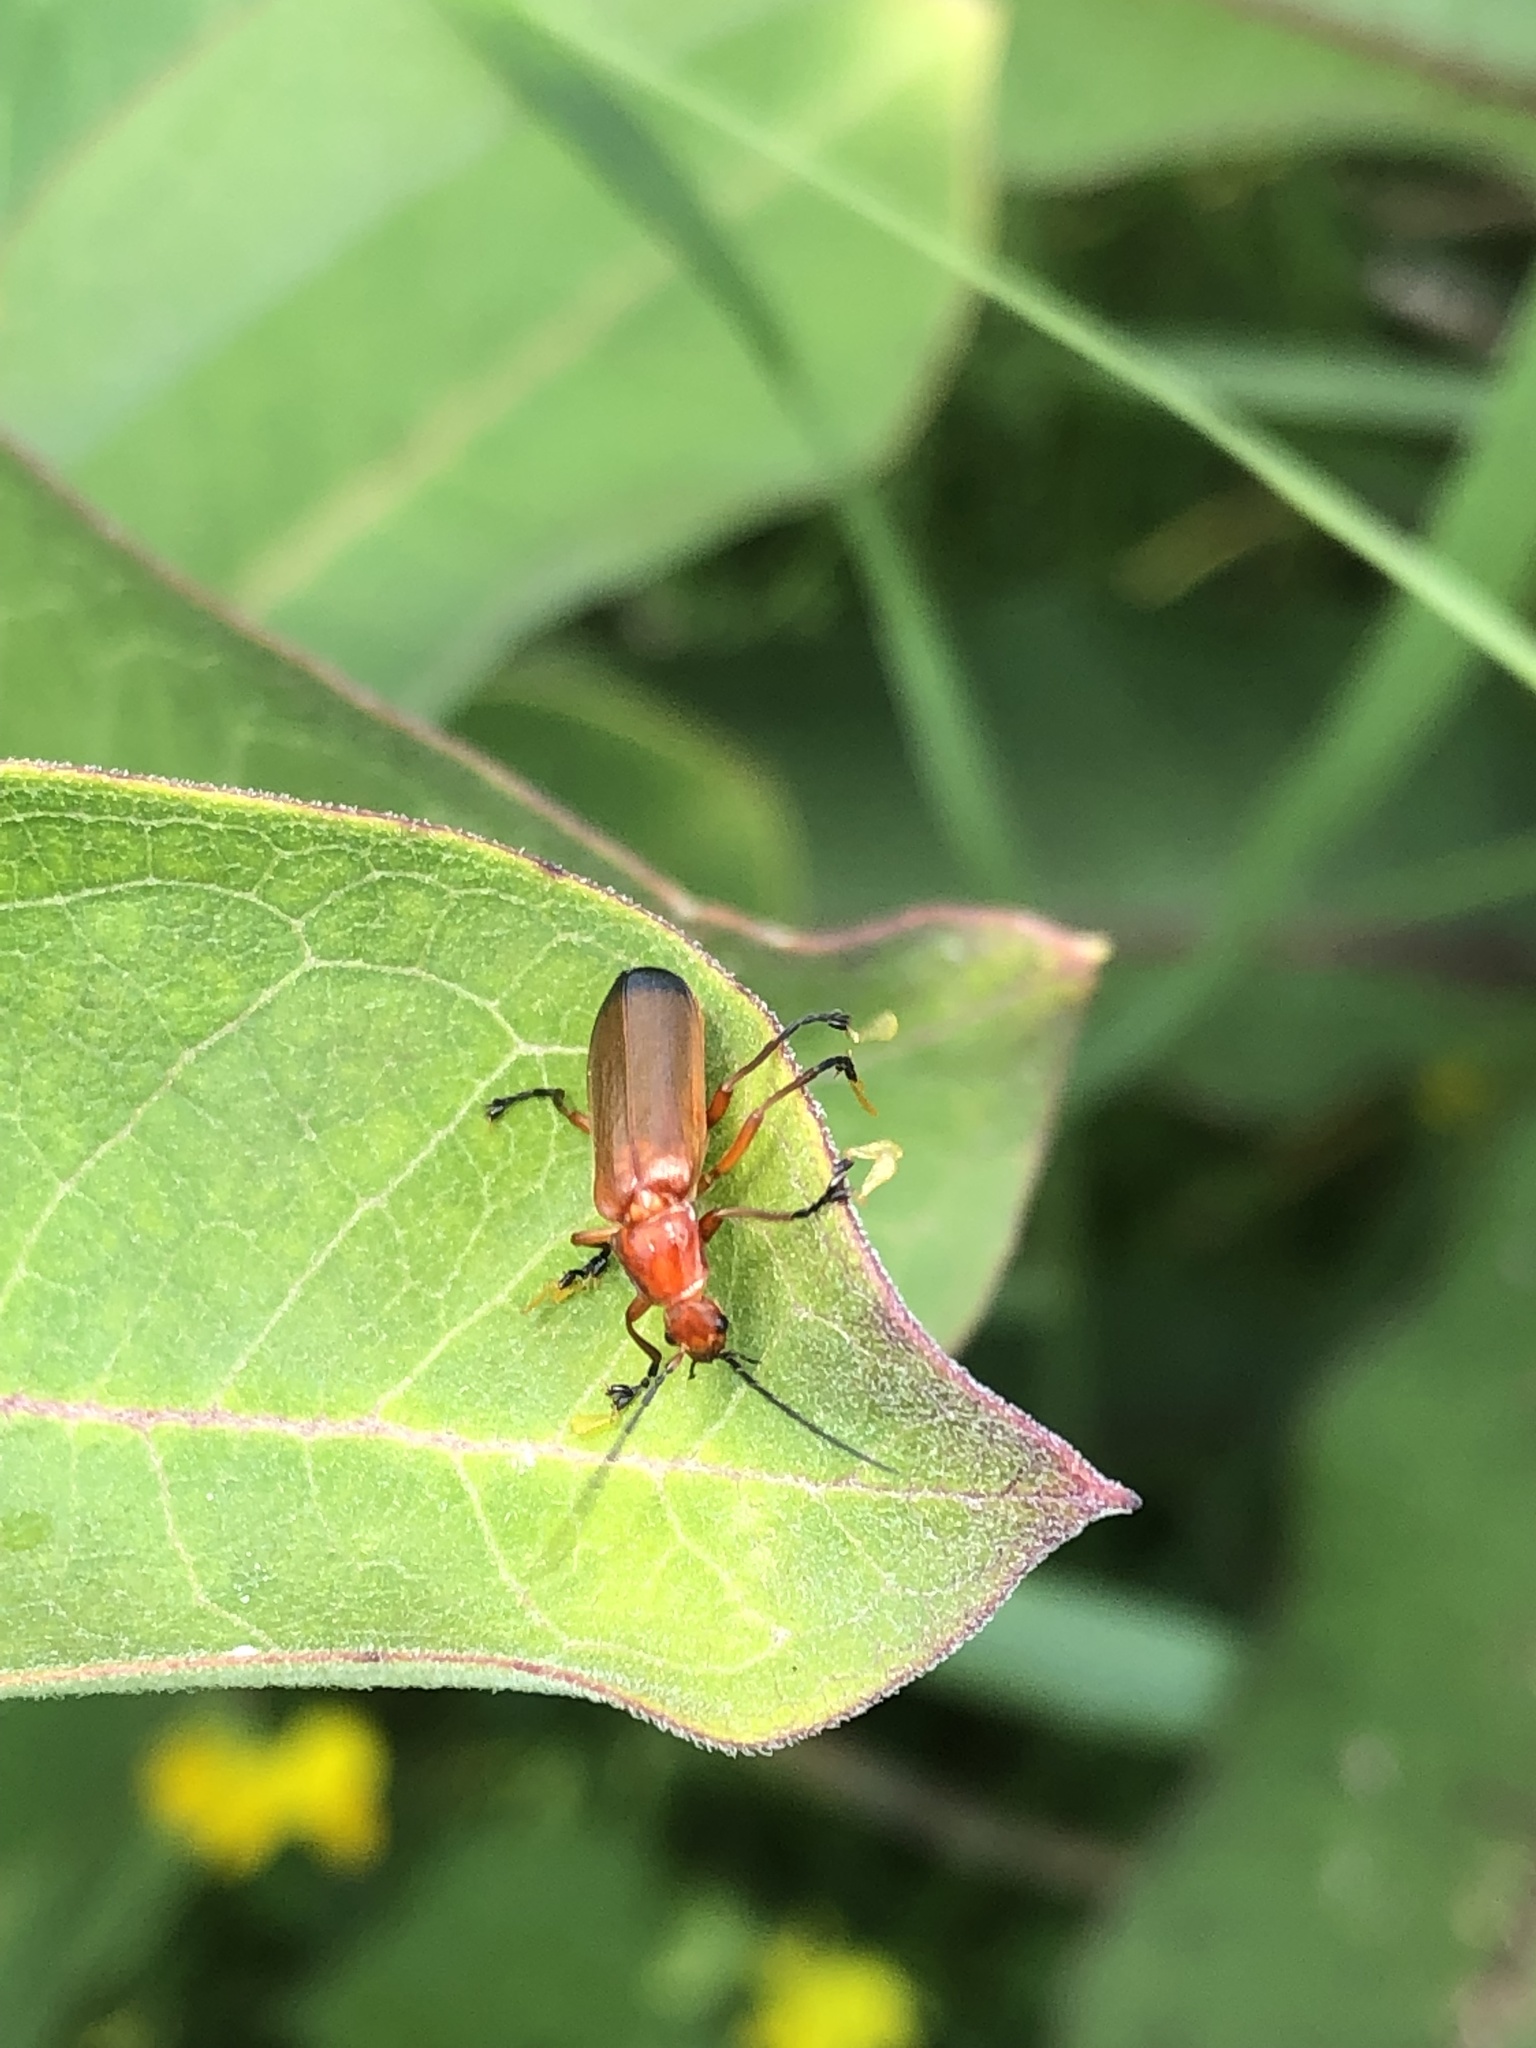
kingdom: Animalia
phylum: Arthropoda
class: Insecta
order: Coleoptera
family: Cantharidae
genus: Rhagonycha
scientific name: Rhagonycha fulva
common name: Common red soldier beetle
